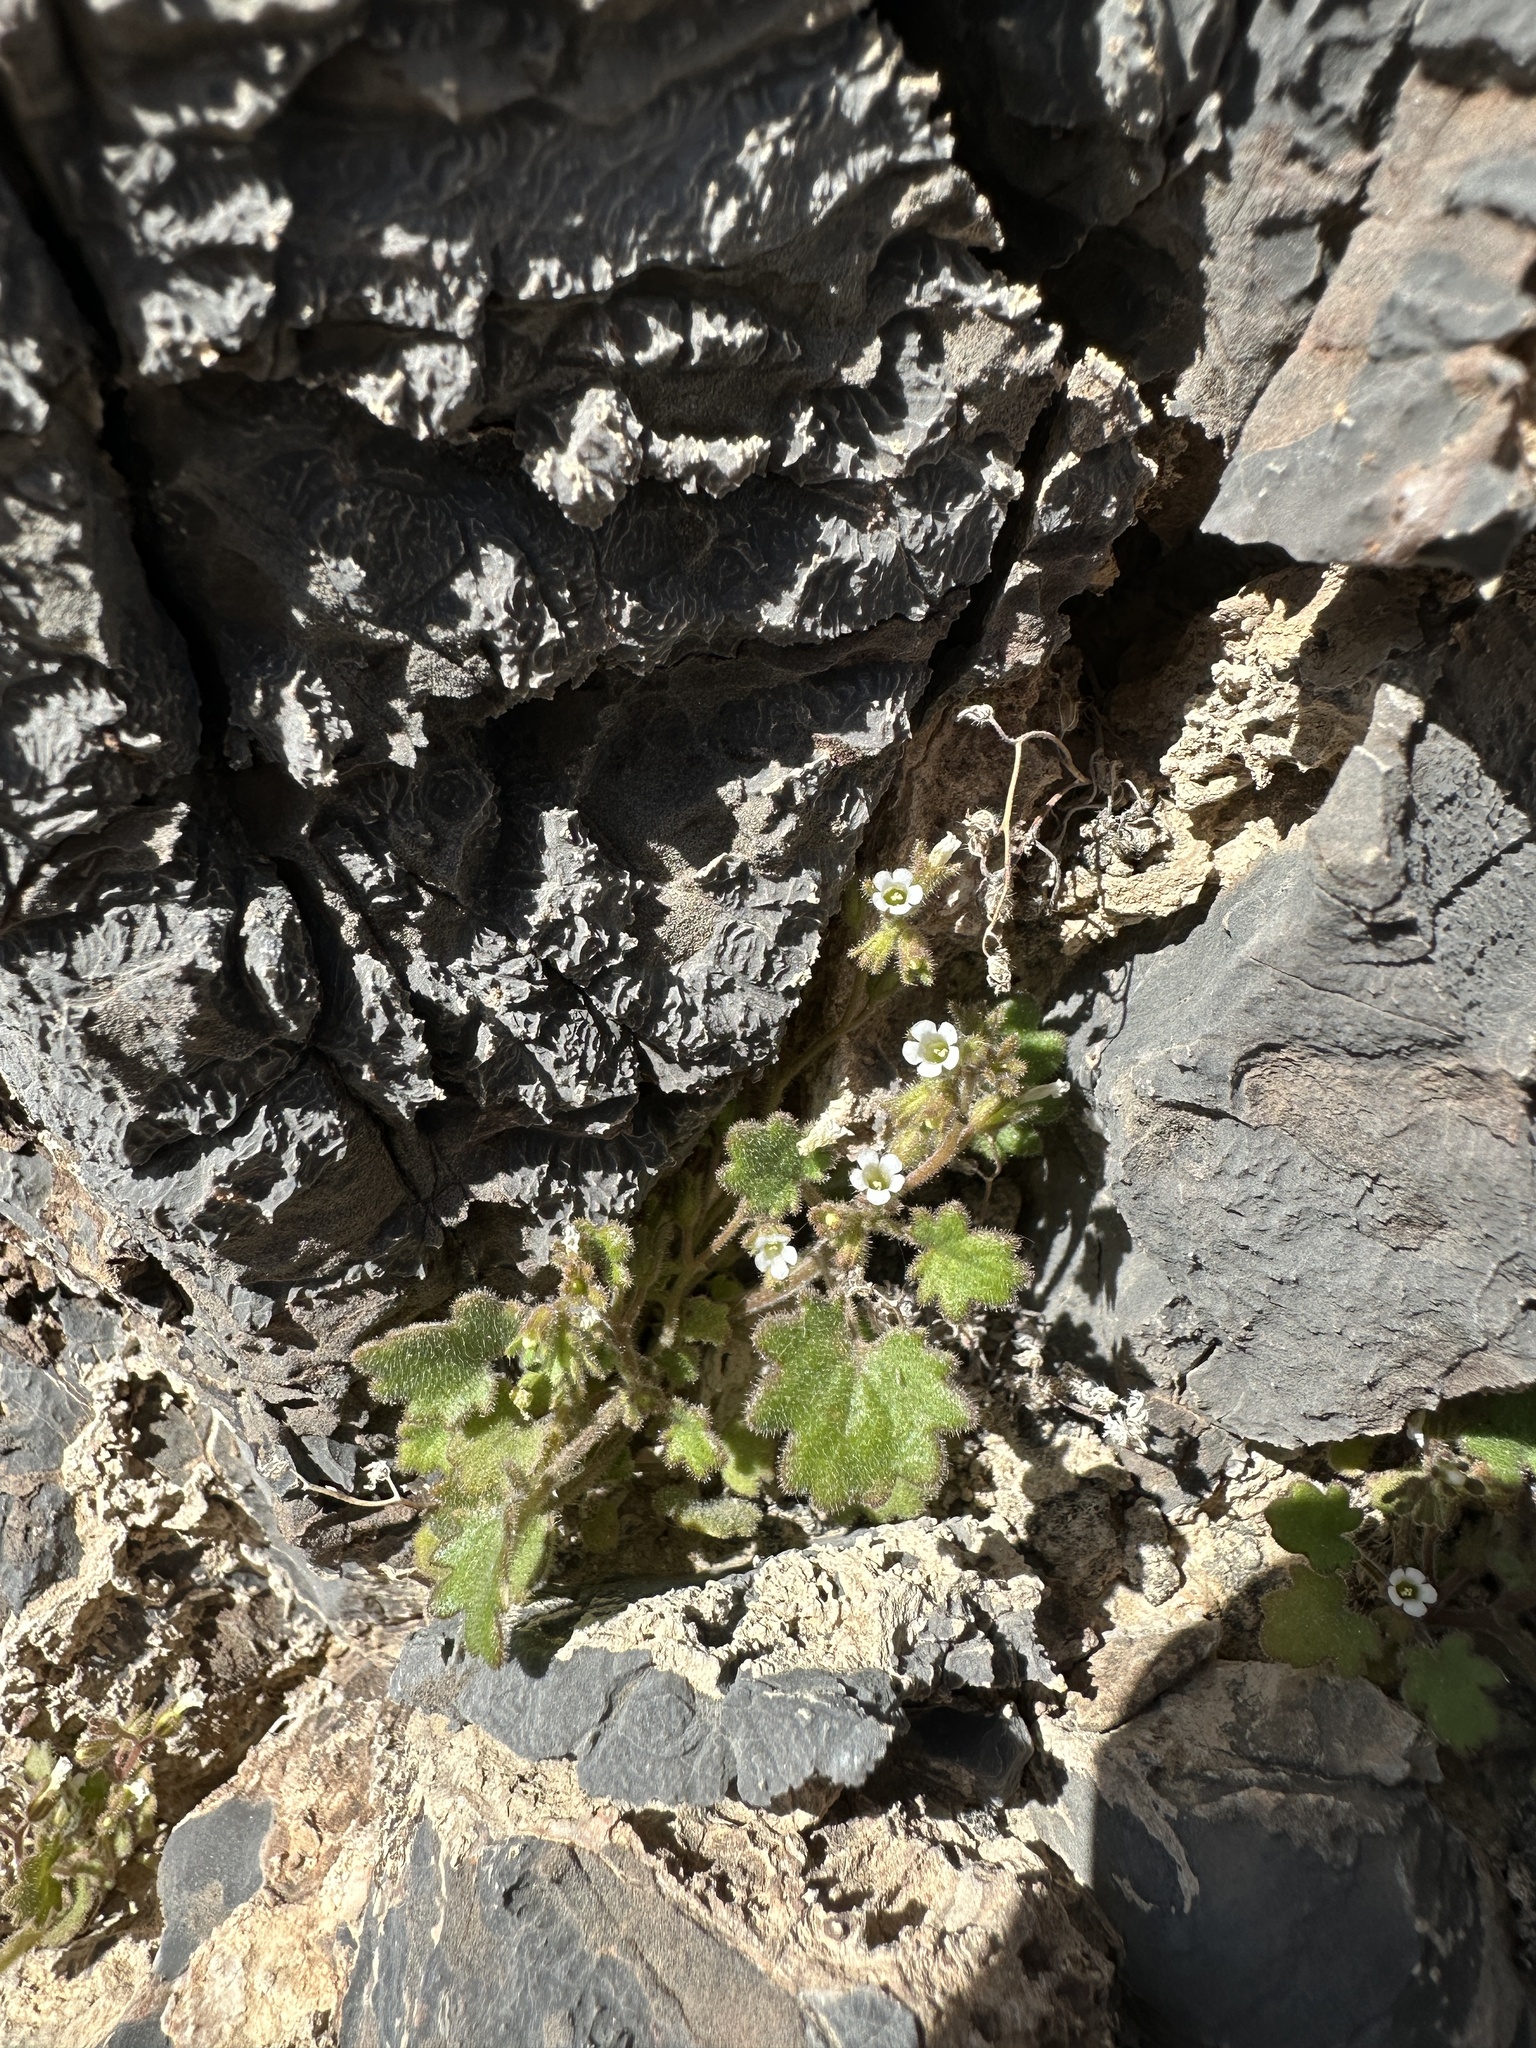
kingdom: Plantae
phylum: Tracheophyta
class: Magnoliopsida
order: Boraginales
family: Hydrophyllaceae
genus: Phacelia
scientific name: Phacelia rotundifolia
